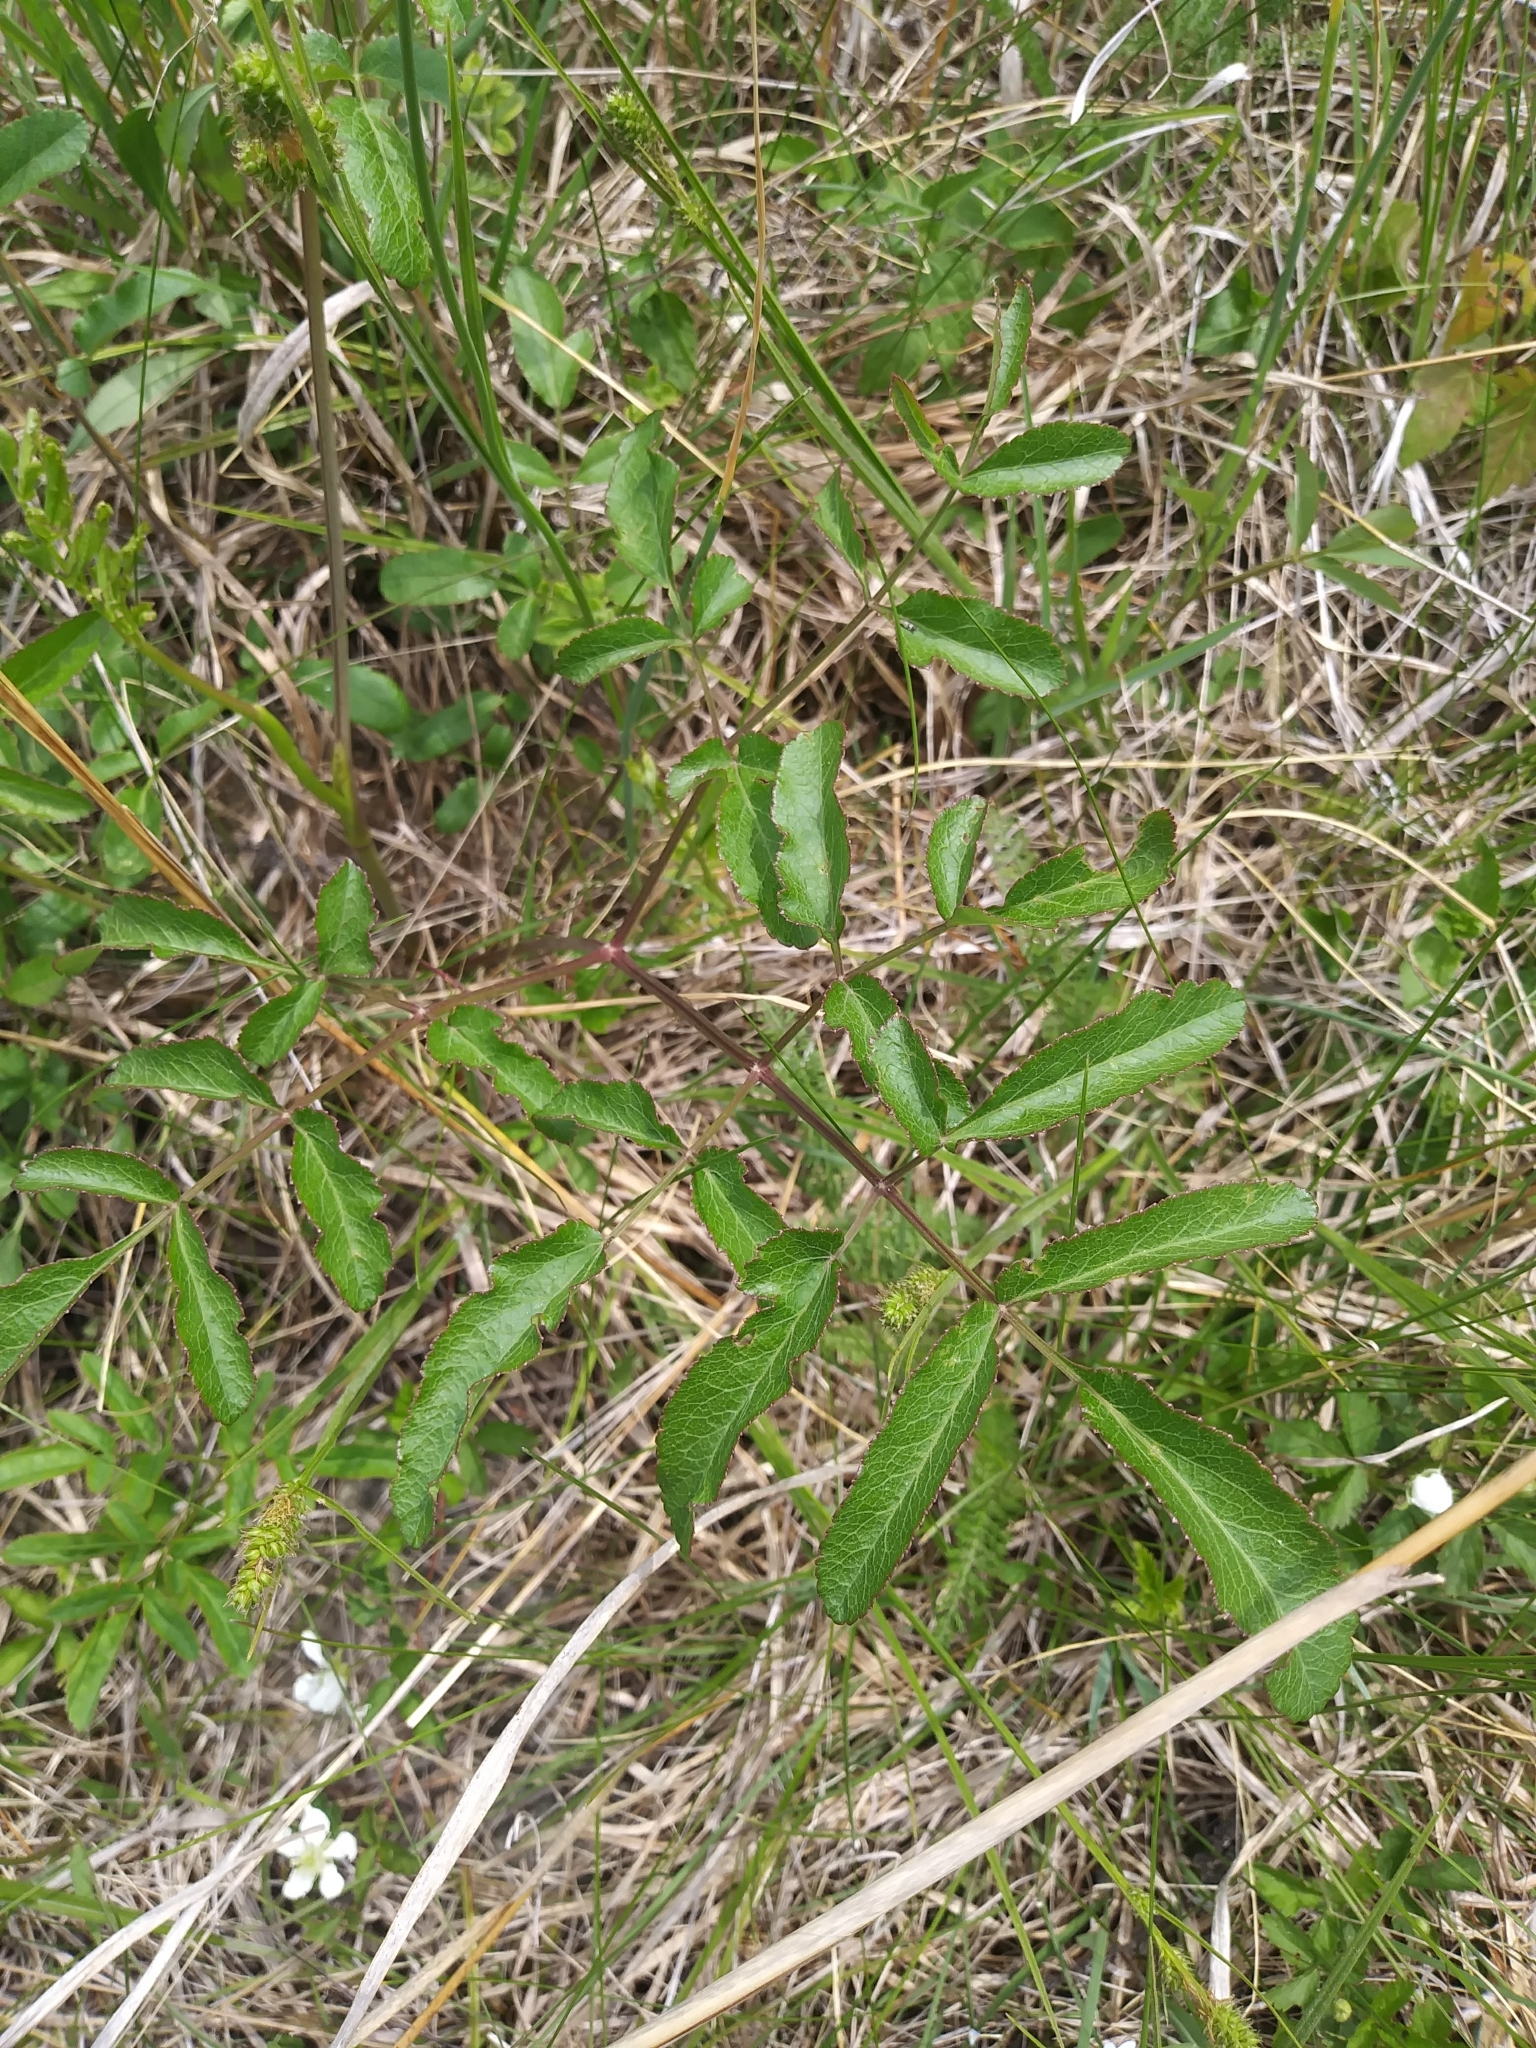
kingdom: Plantae
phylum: Tracheophyta
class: Magnoliopsida
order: Apiales
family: Apiaceae
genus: Angelica
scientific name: Angelica venenosa
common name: Hairy angelica
